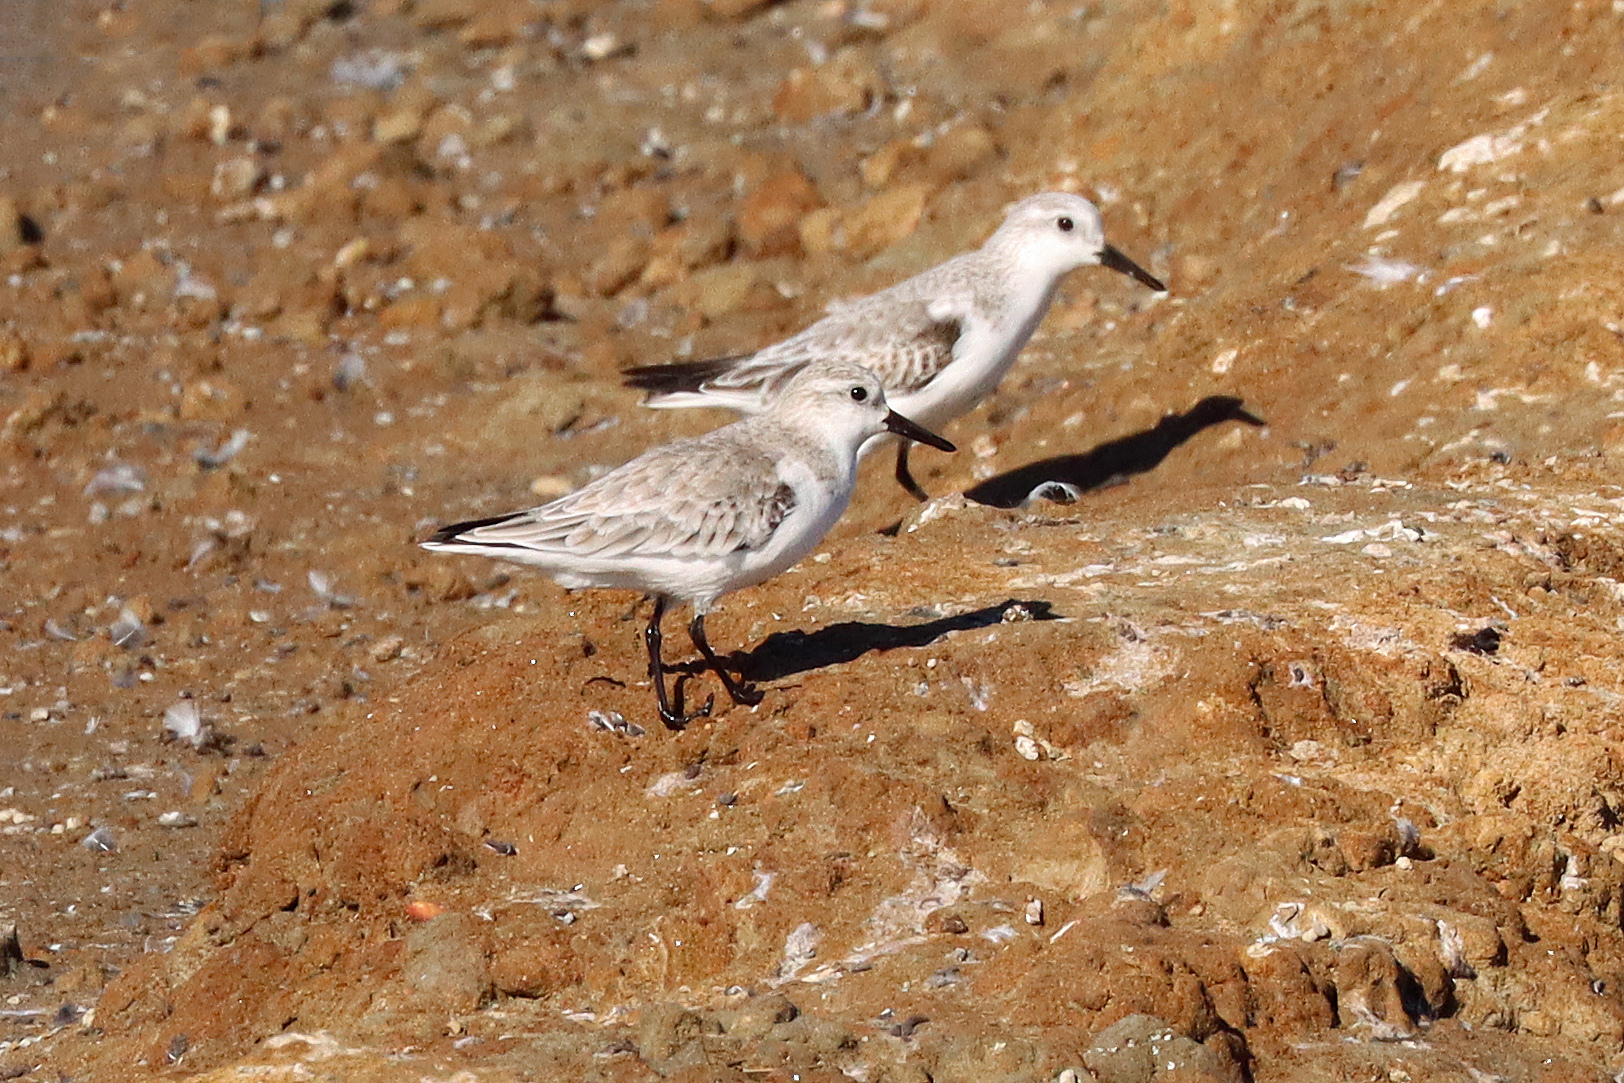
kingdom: Animalia
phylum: Chordata
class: Aves
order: Charadriiformes
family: Scolopacidae
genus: Calidris
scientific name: Calidris alba
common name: Sanderling
